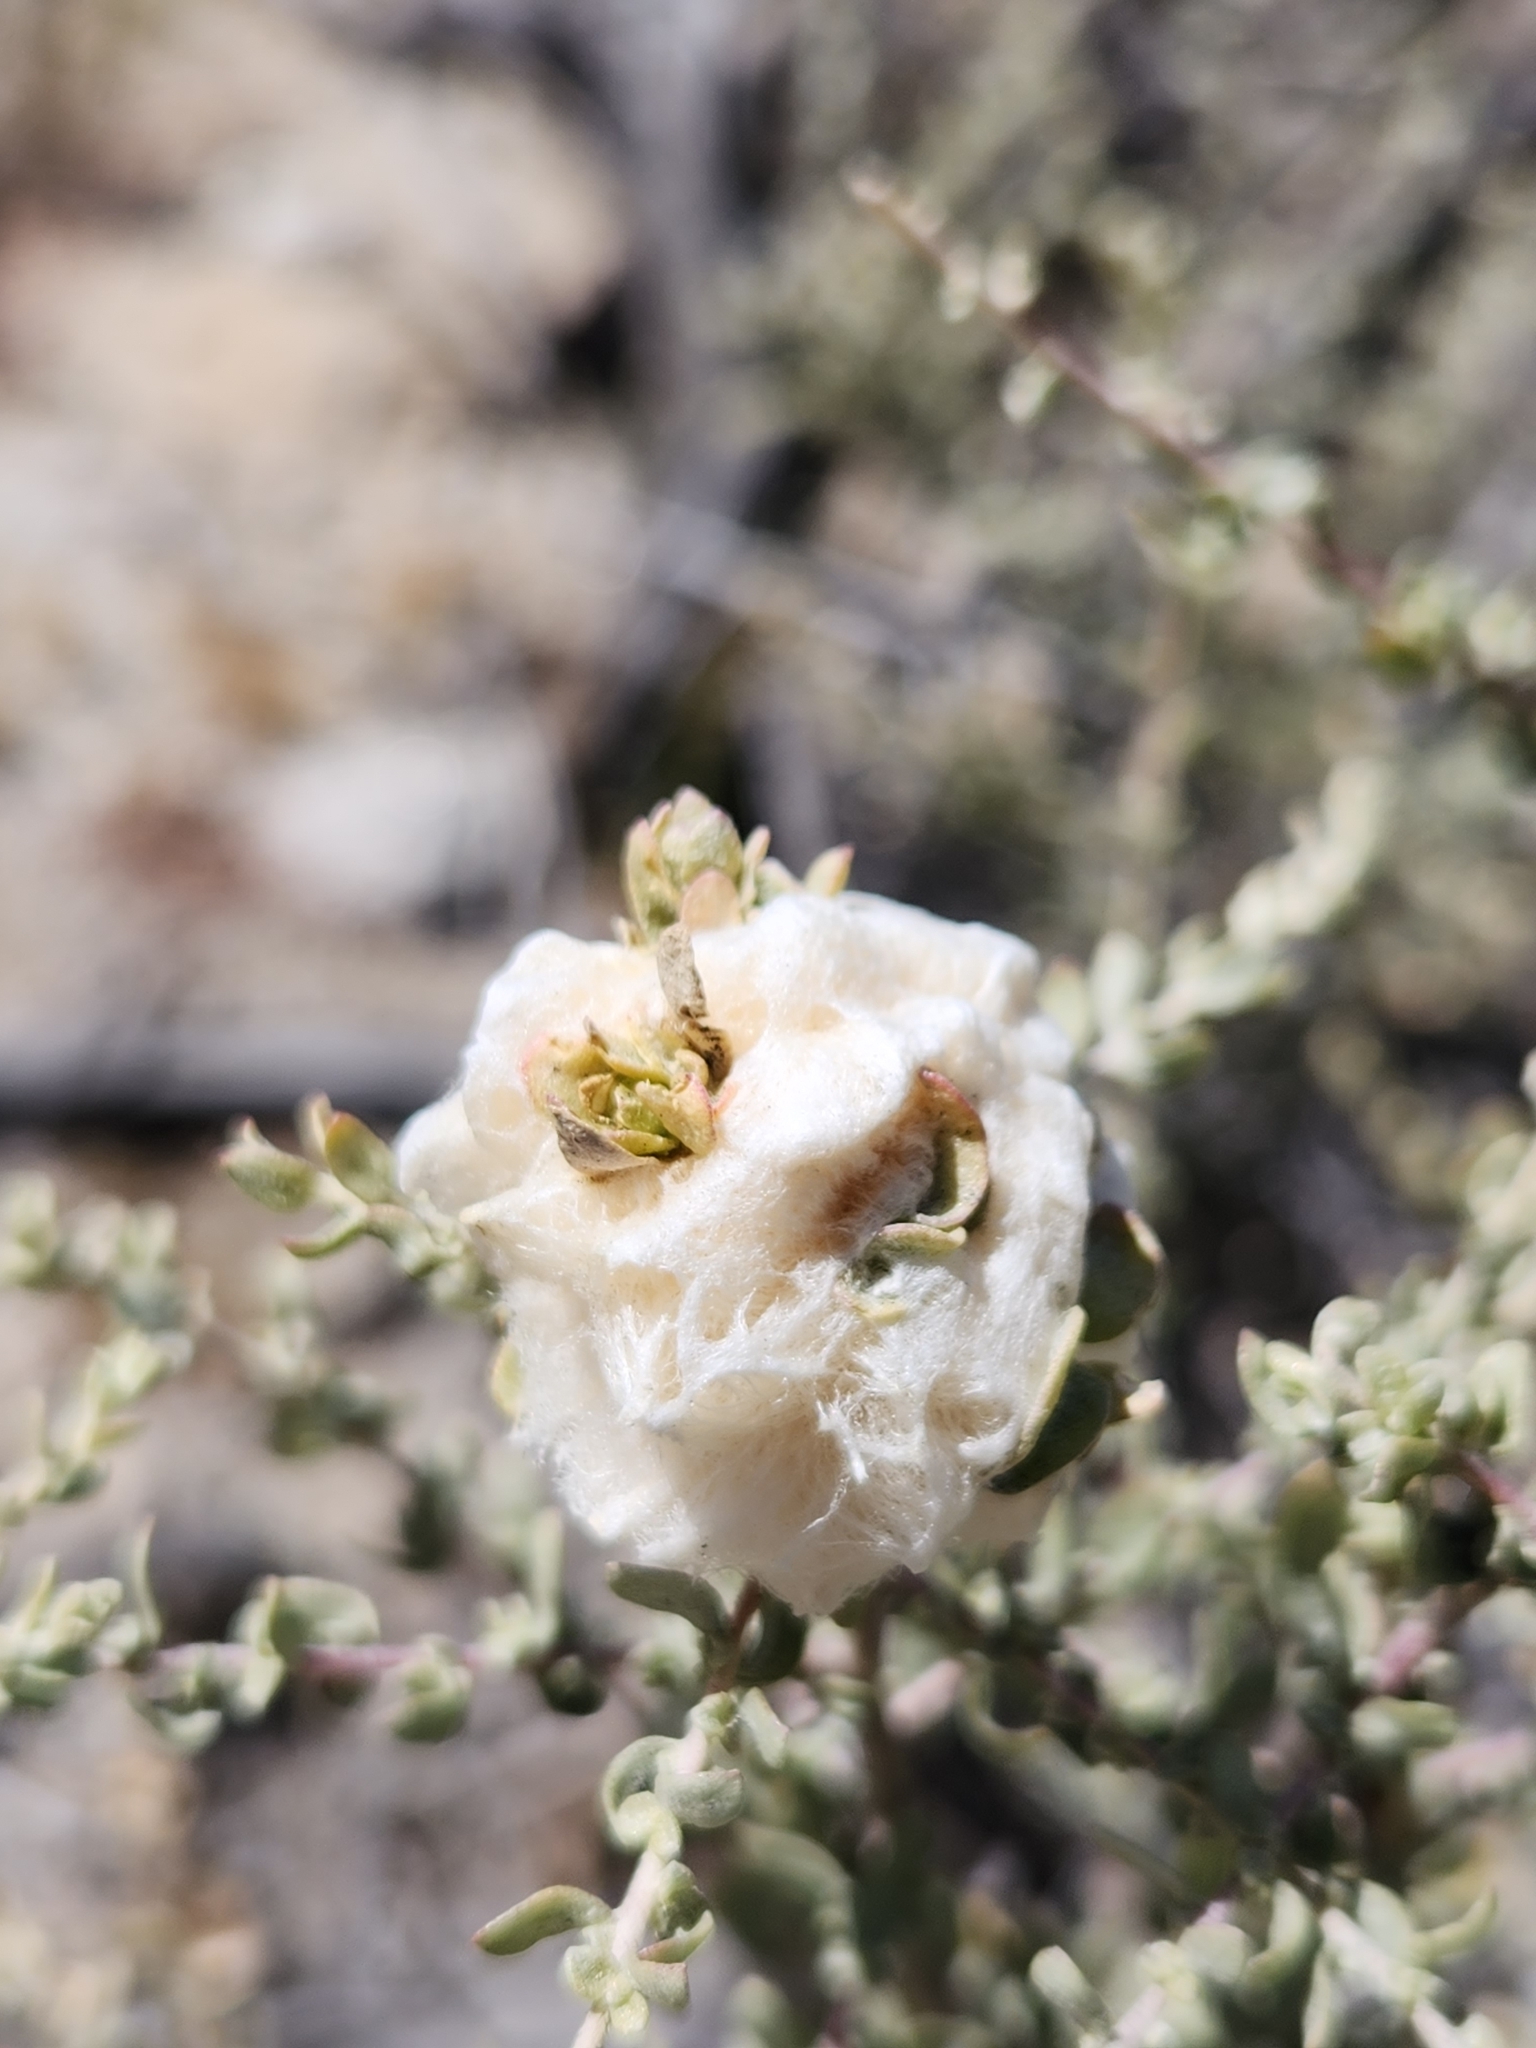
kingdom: Animalia
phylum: Arthropoda
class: Insecta
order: Diptera
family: Cecidomyiidae
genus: Asphondylia
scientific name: Asphondylia floccosa
